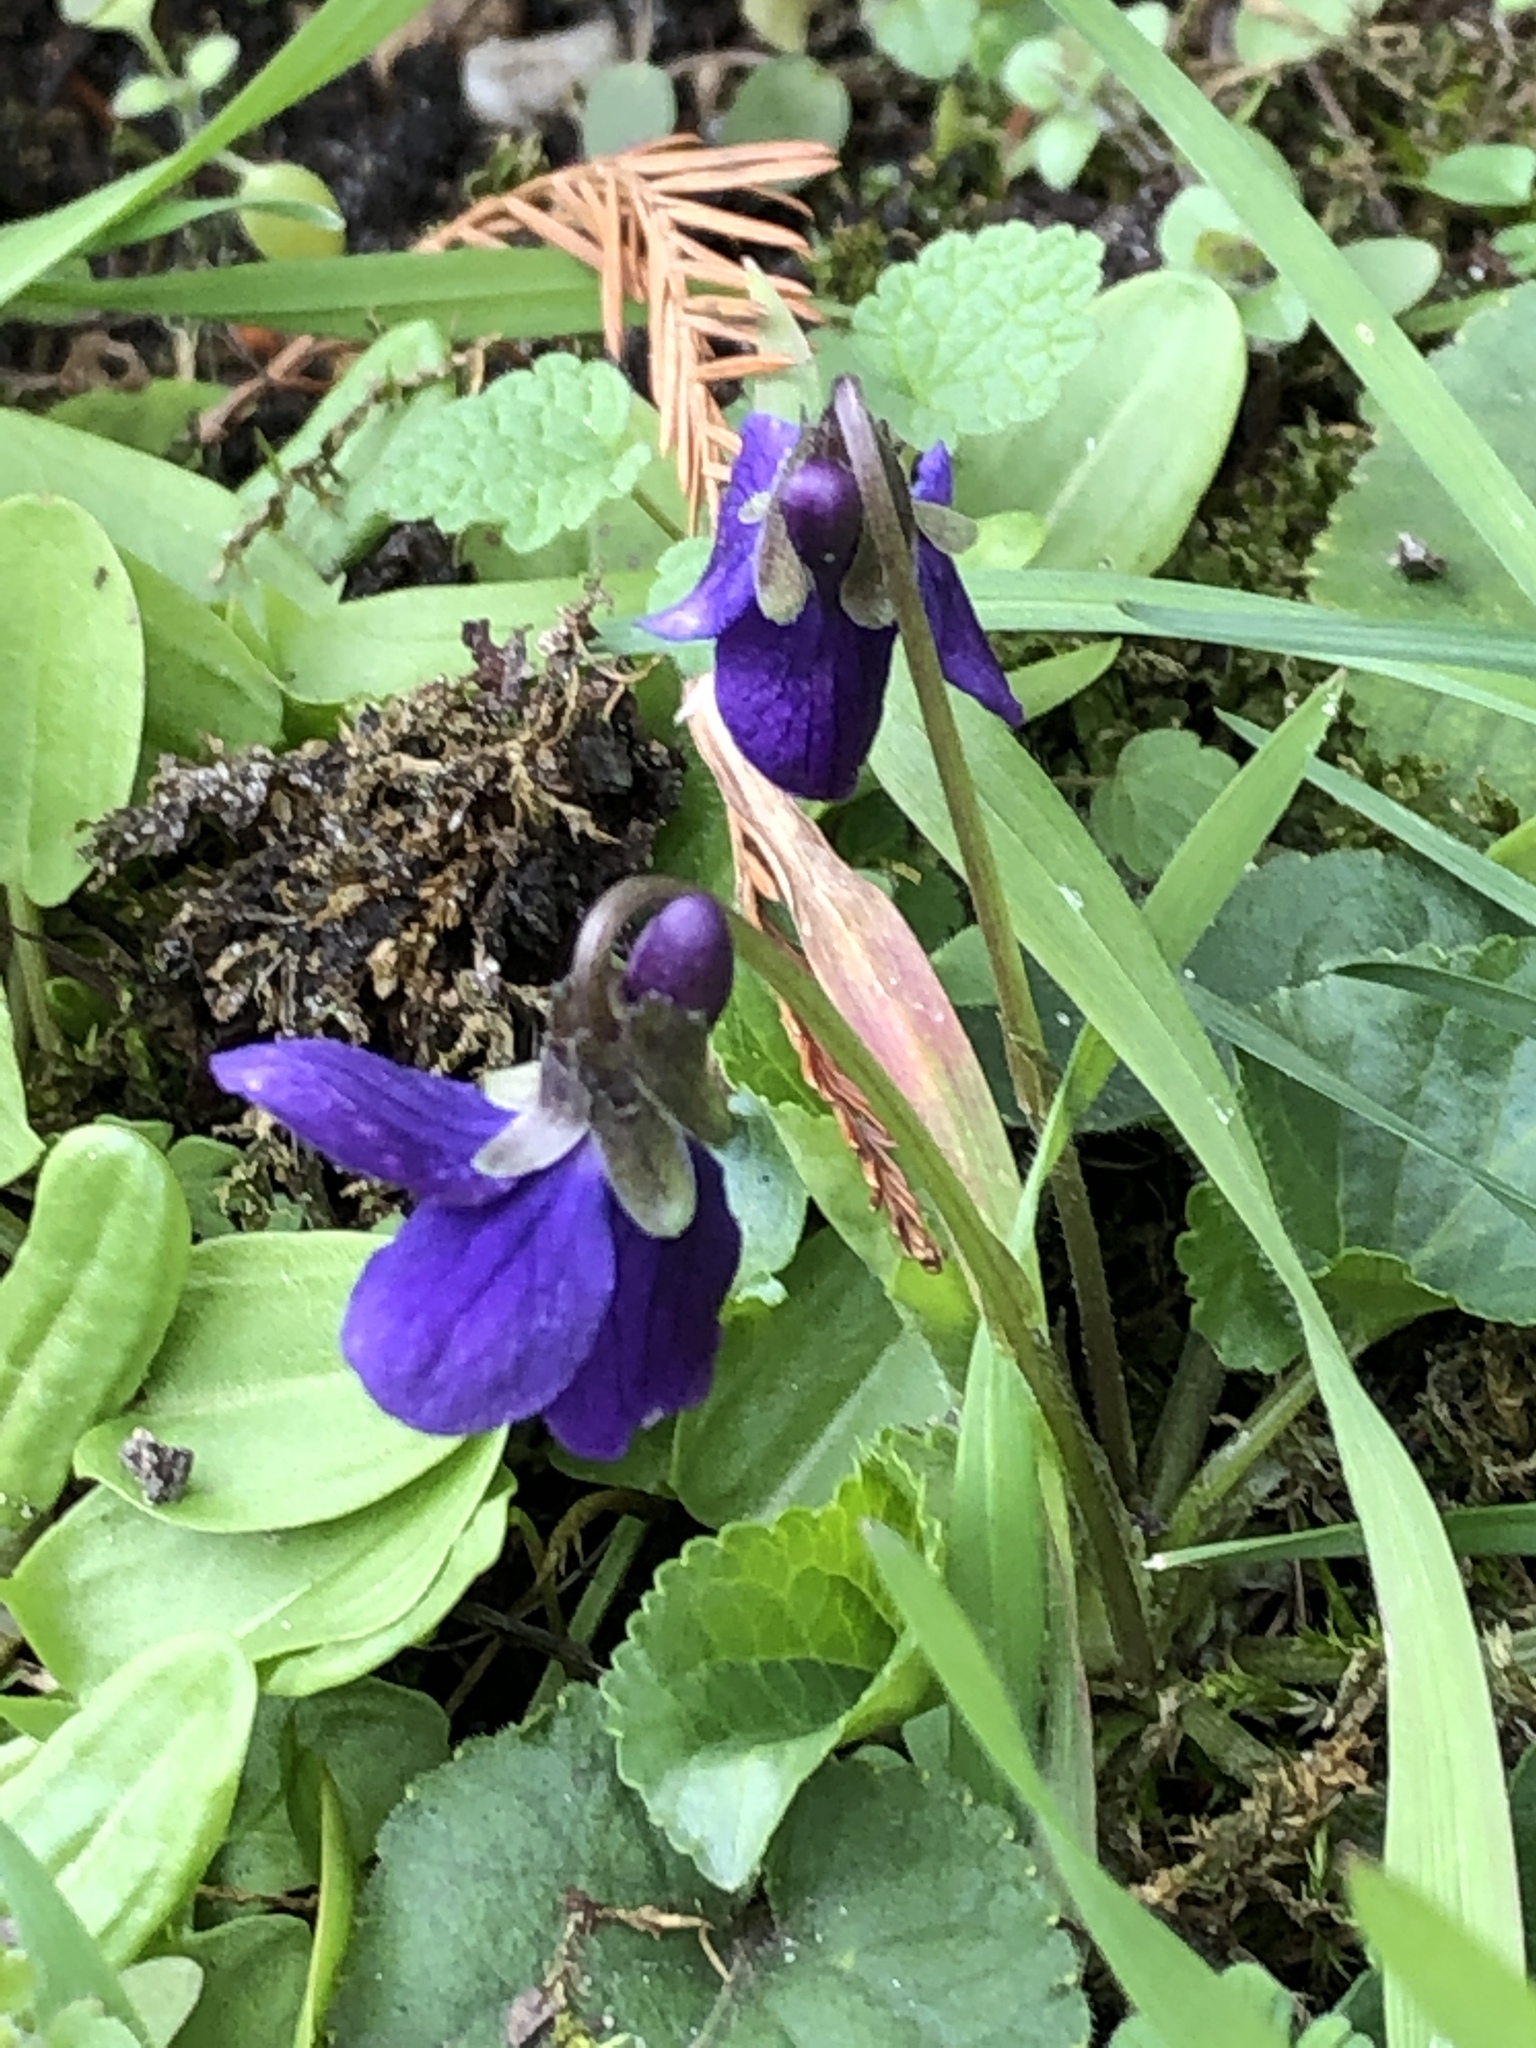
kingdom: Plantae
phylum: Tracheophyta
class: Magnoliopsida
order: Malpighiales
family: Violaceae
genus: Viola
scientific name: Viola odorata
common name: Sweet violet
